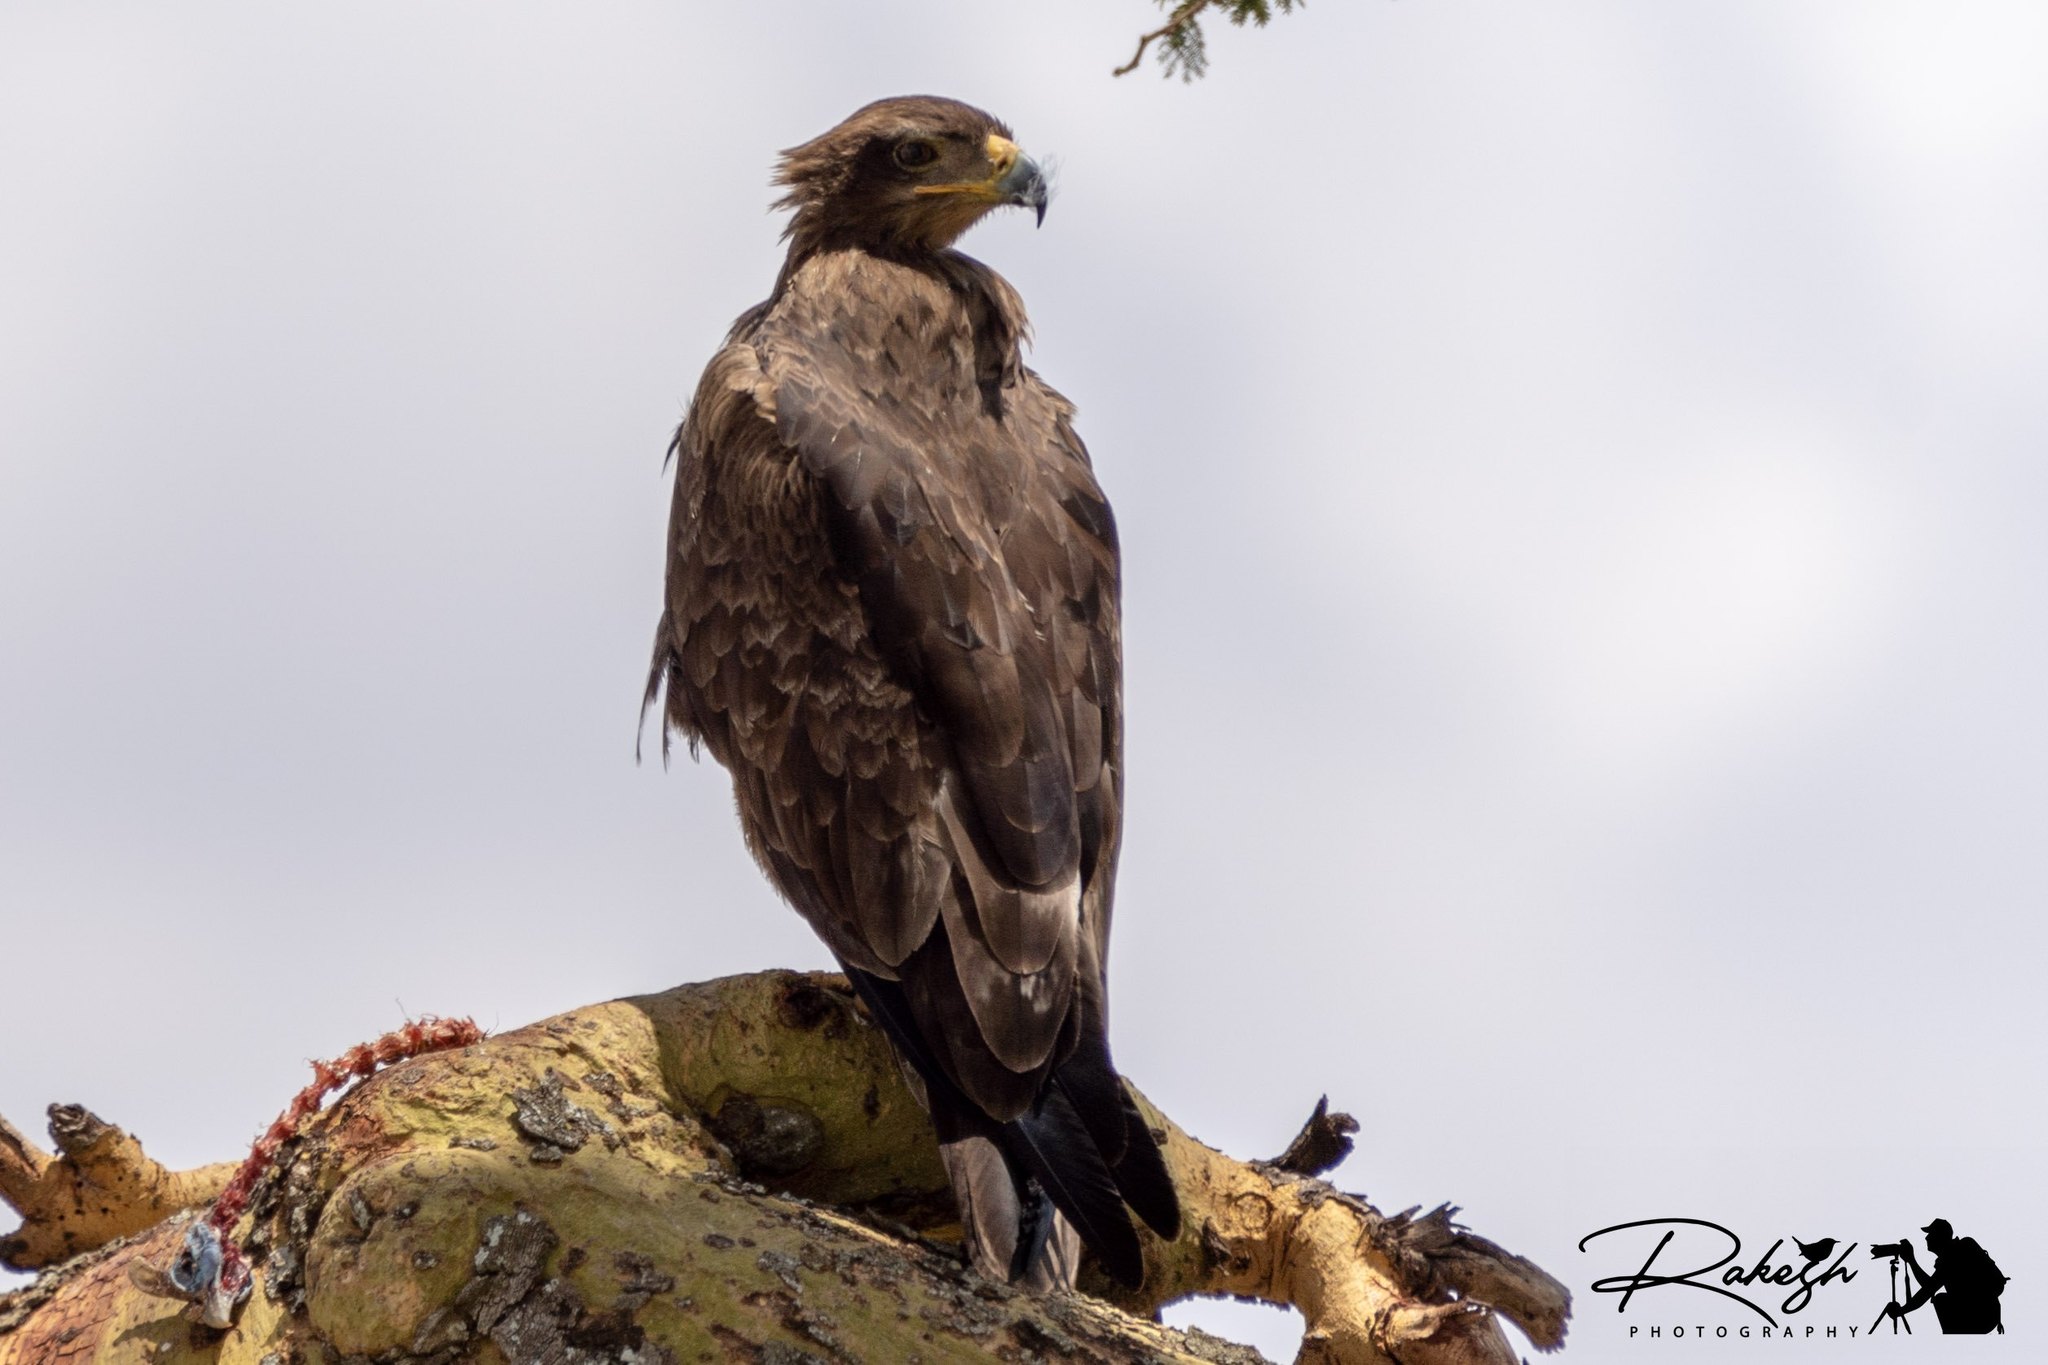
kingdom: Animalia
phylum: Chordata
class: Aves
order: Accipitriformes
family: Accipitridae
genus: Aquila
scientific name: Aquila rapax
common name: Tawny eagle
